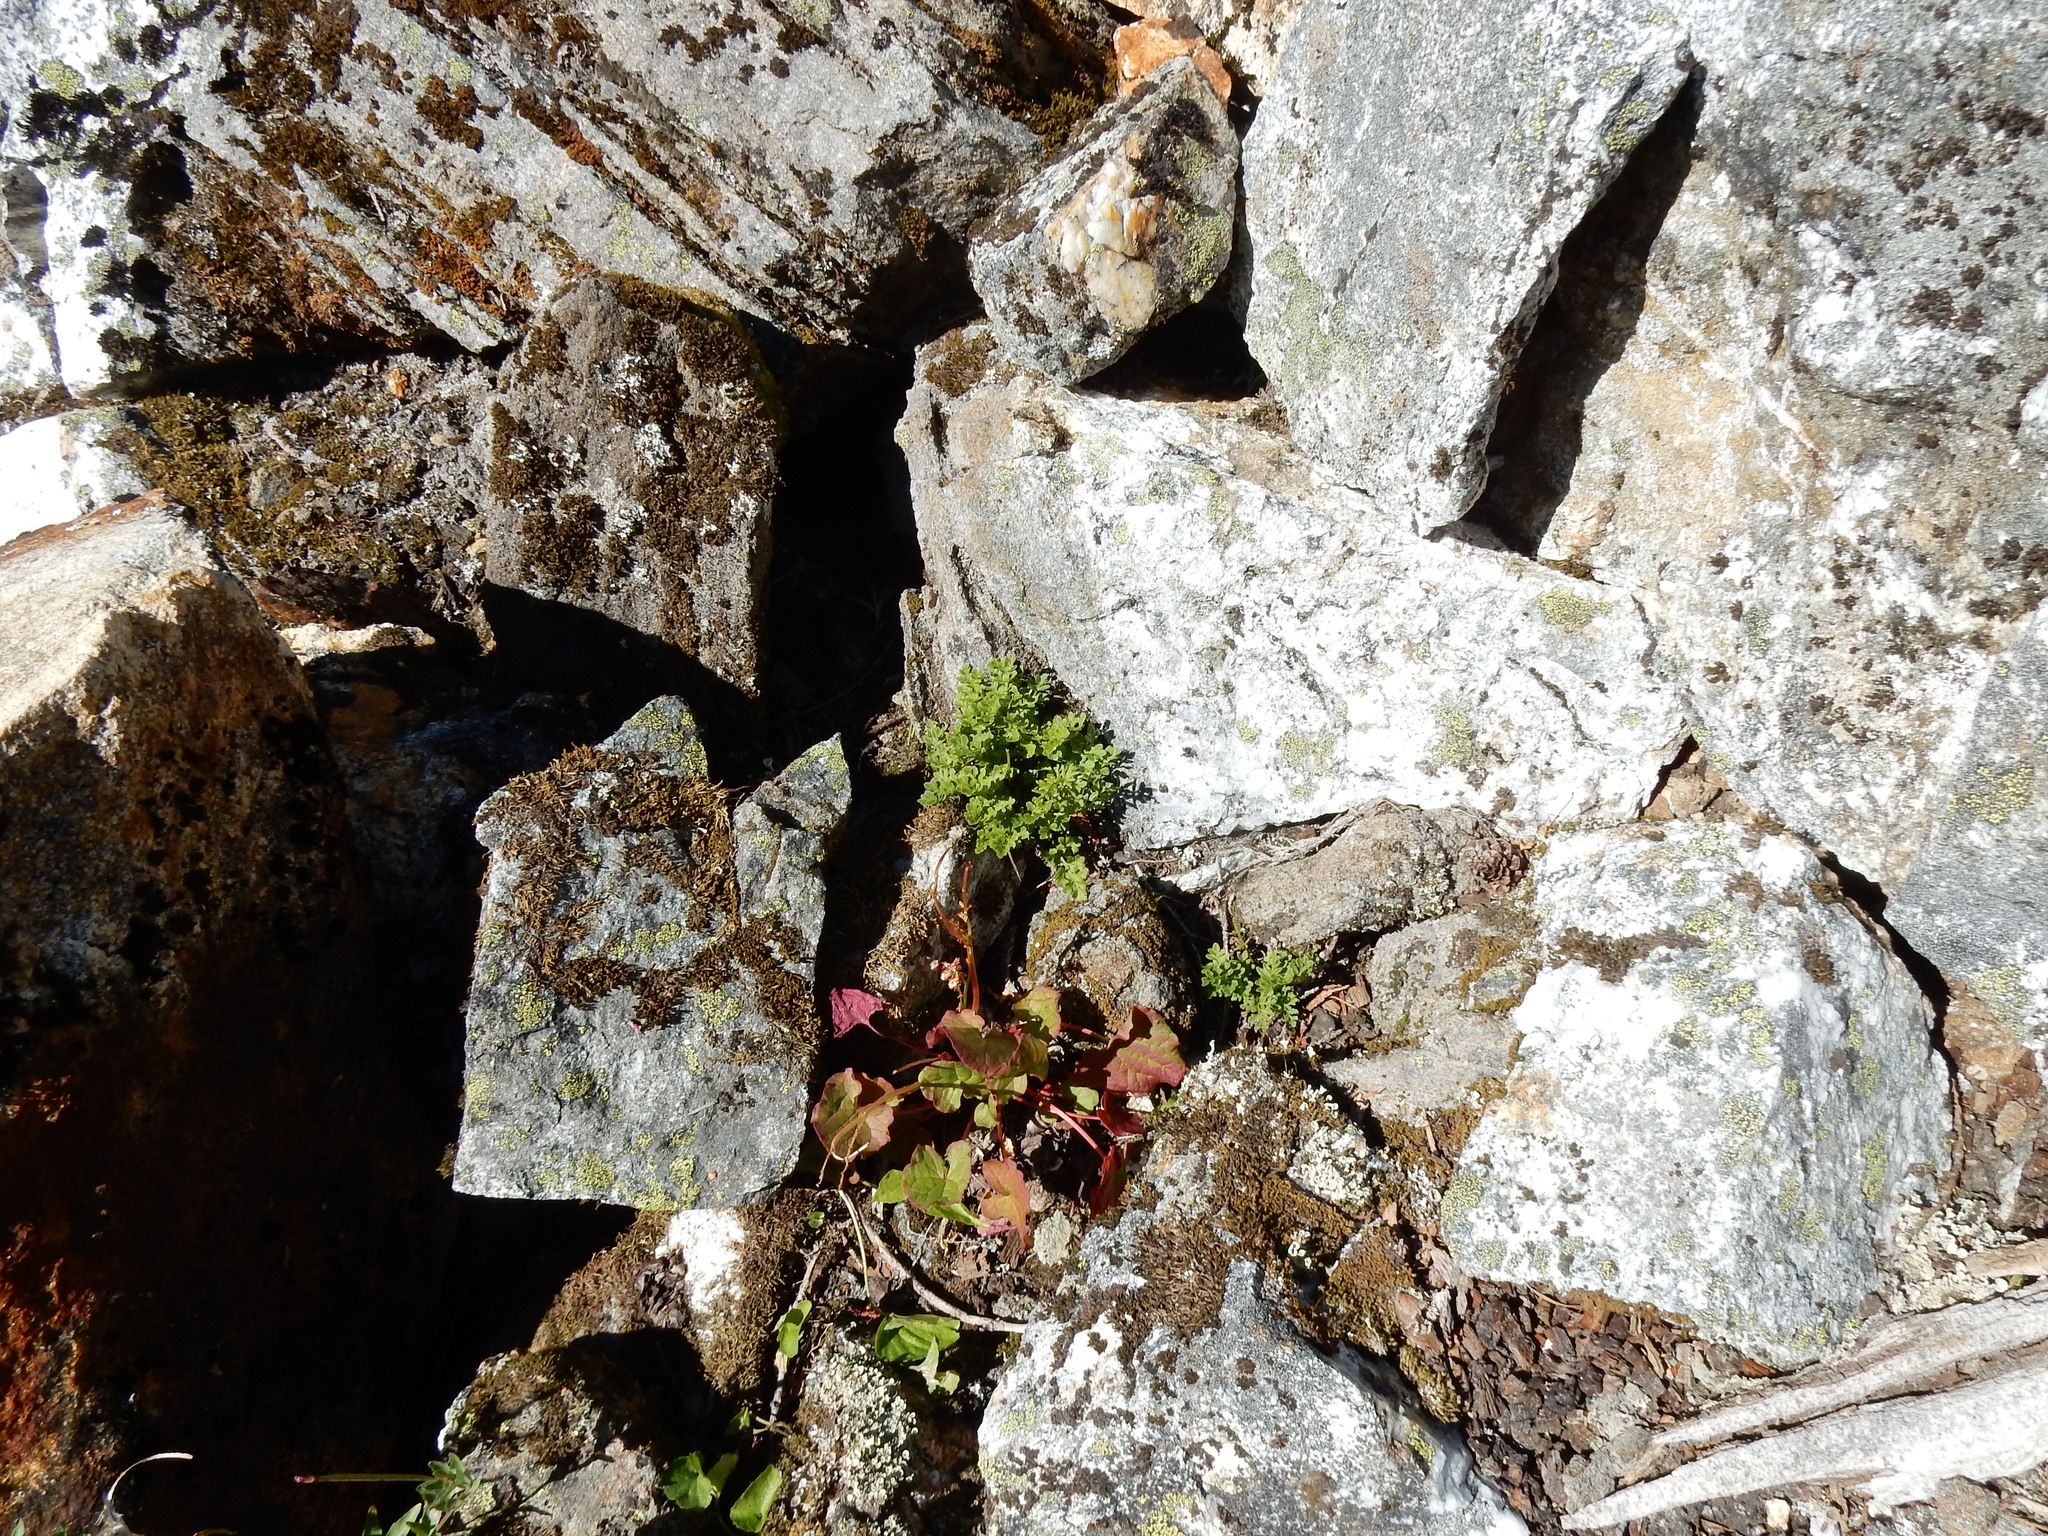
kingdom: Plantae
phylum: Tracheophyta
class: Polypodiopsida
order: Polypodiales
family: Pteridaceae
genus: Cryptogramma
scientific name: Cryptogramma acrostichoides
